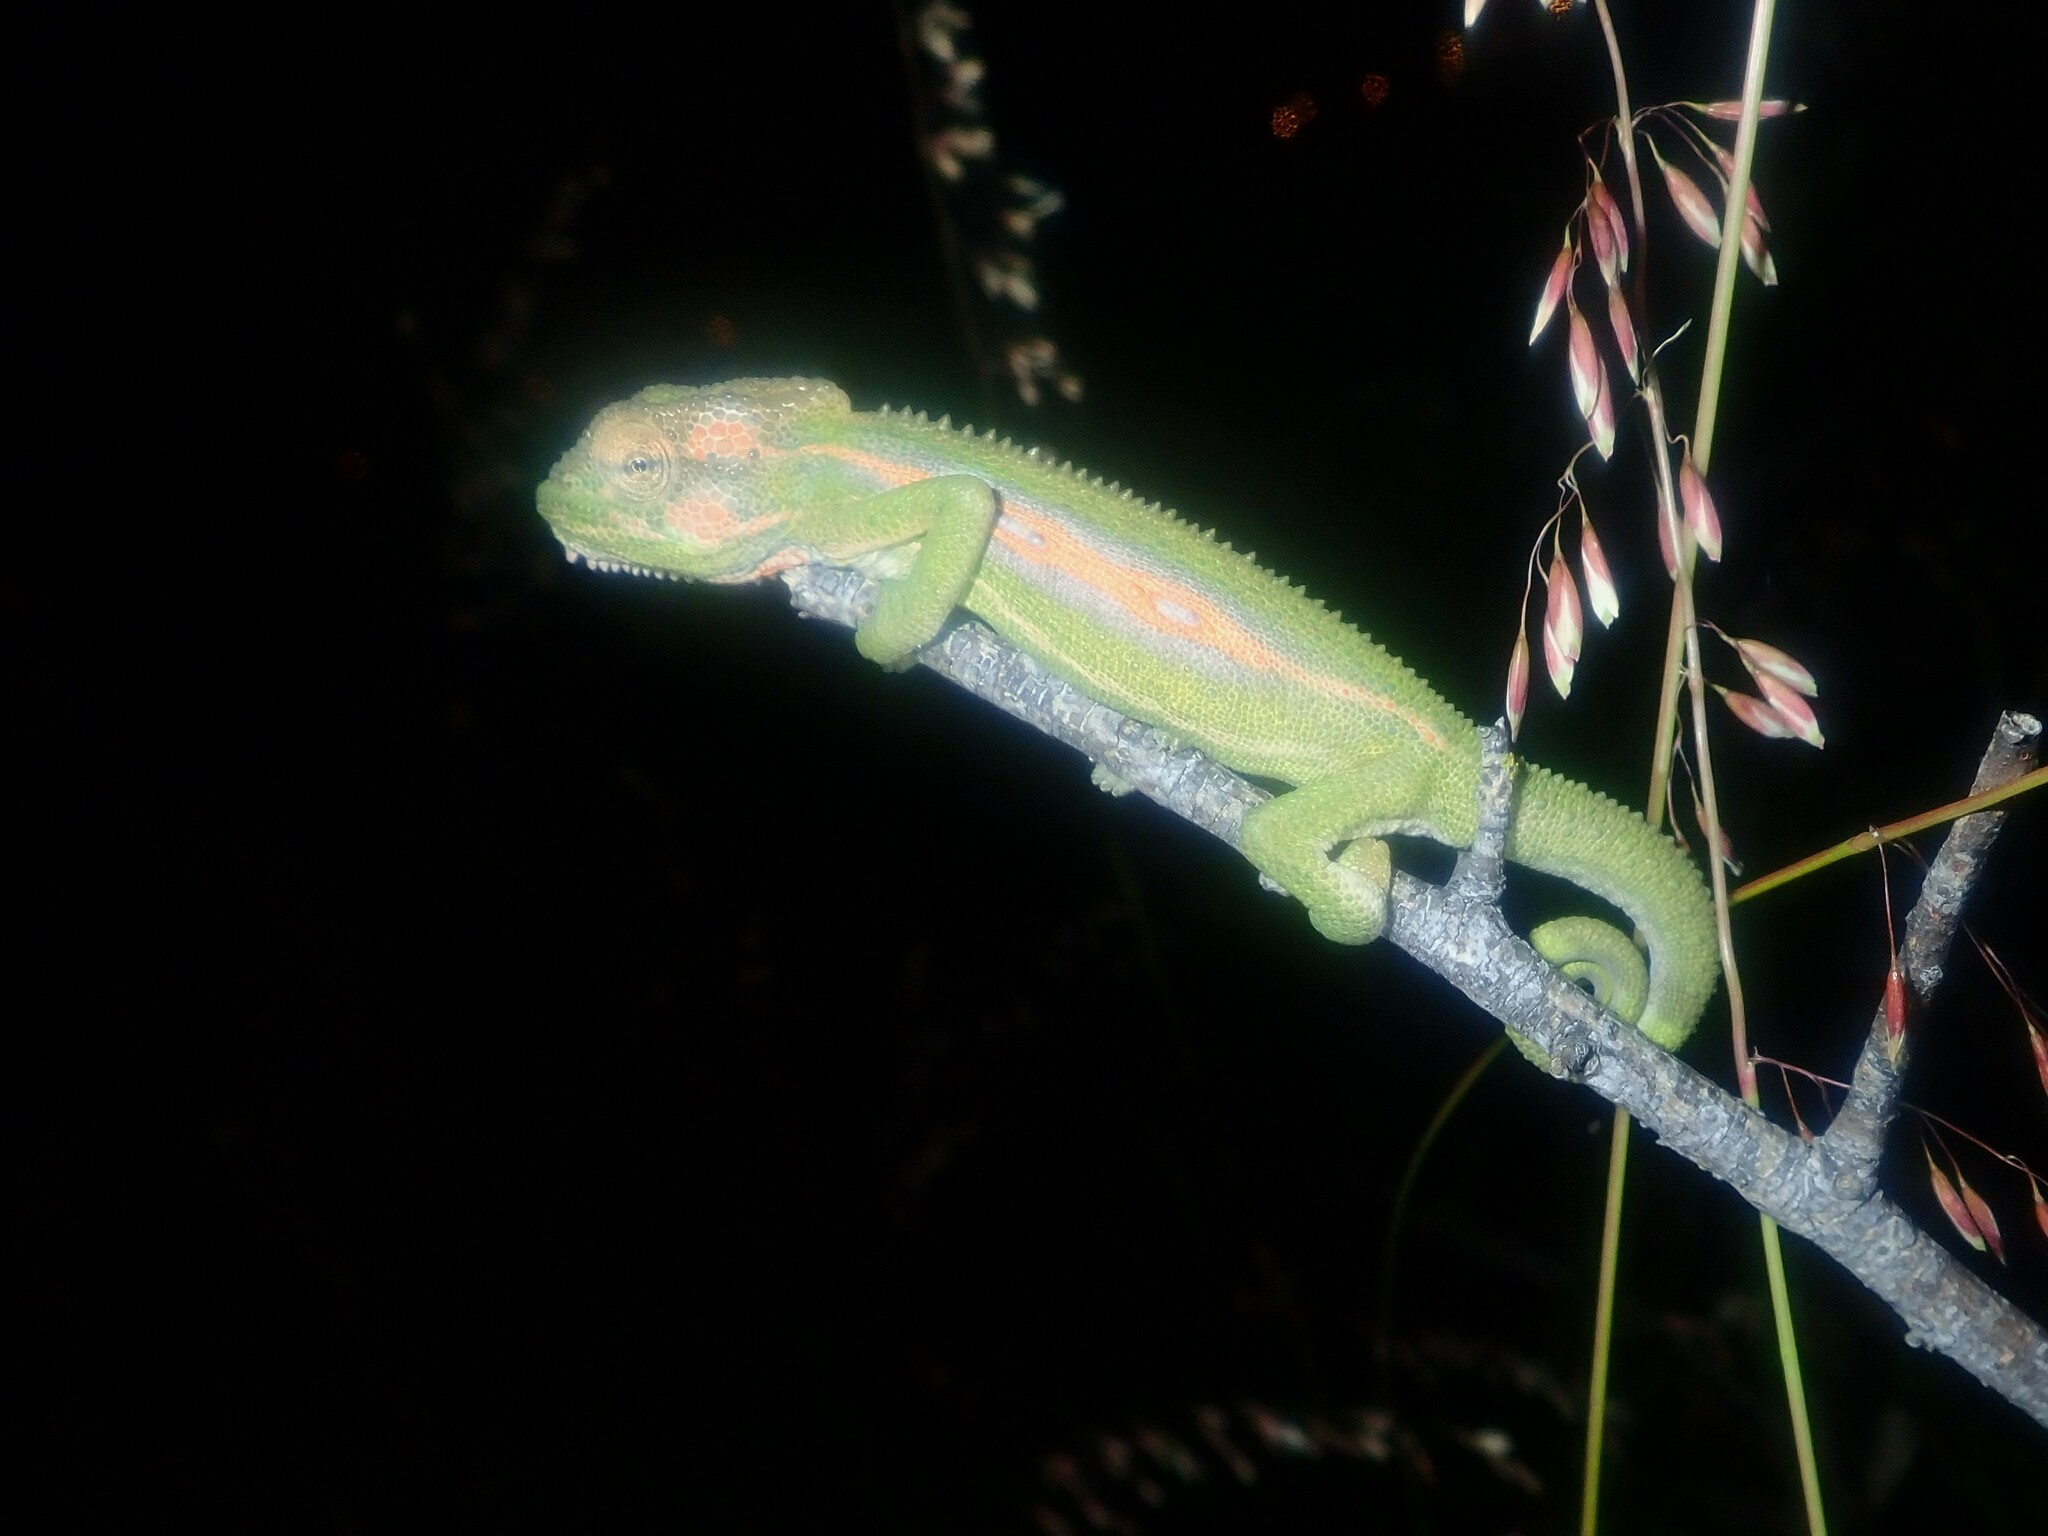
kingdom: Animalia
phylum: Chordata
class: Squamata
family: Chamaeleonidae
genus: Bradypodion
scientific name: Bradypodion pumilum
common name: Cape dwarf chameleon
